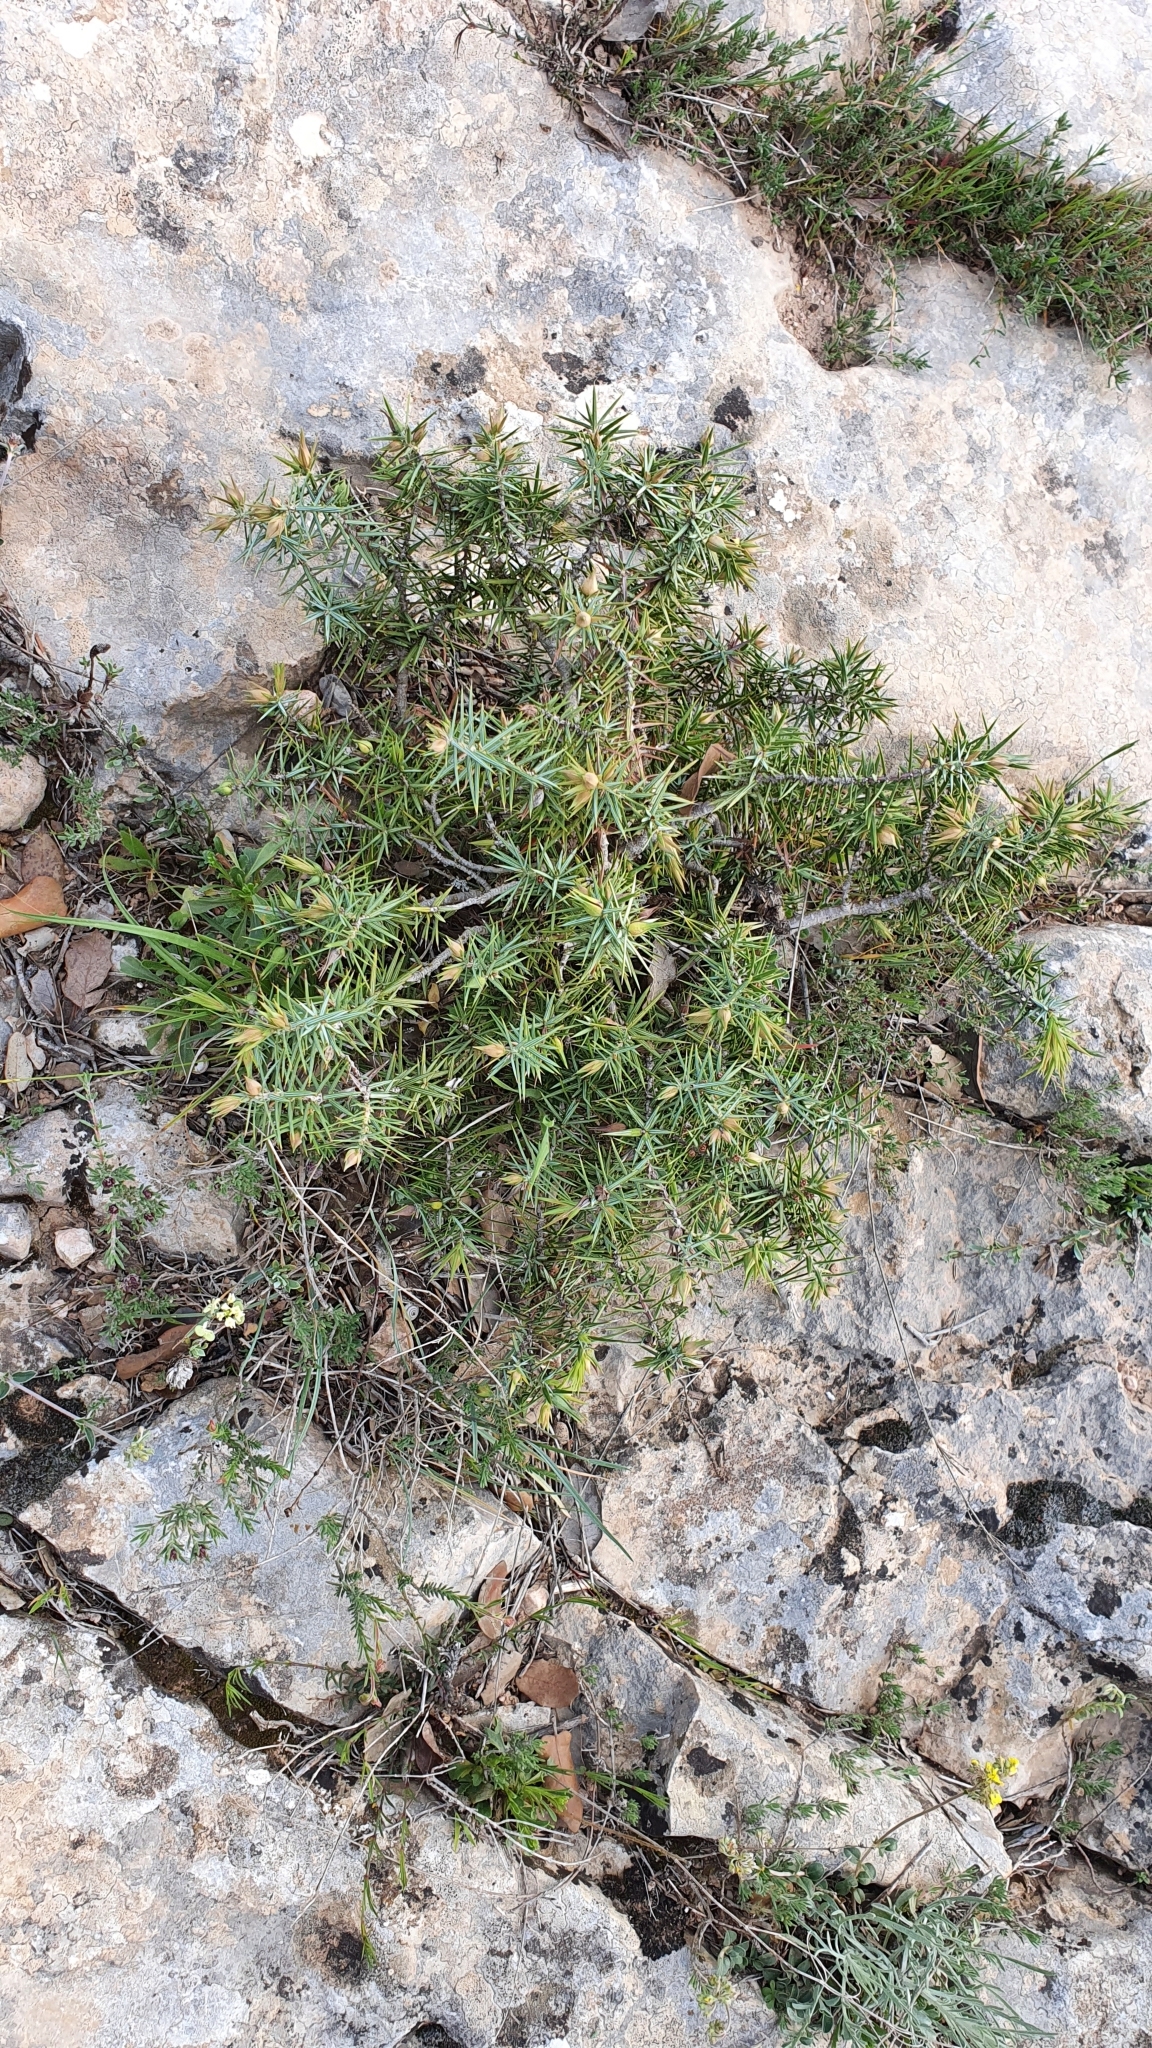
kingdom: Plantae
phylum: Tracheophyta
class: Pinopsida
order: Pinales
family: Cupressaceae
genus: Juniperus
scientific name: Juniperus oxycedrus
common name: Prickly juniper
